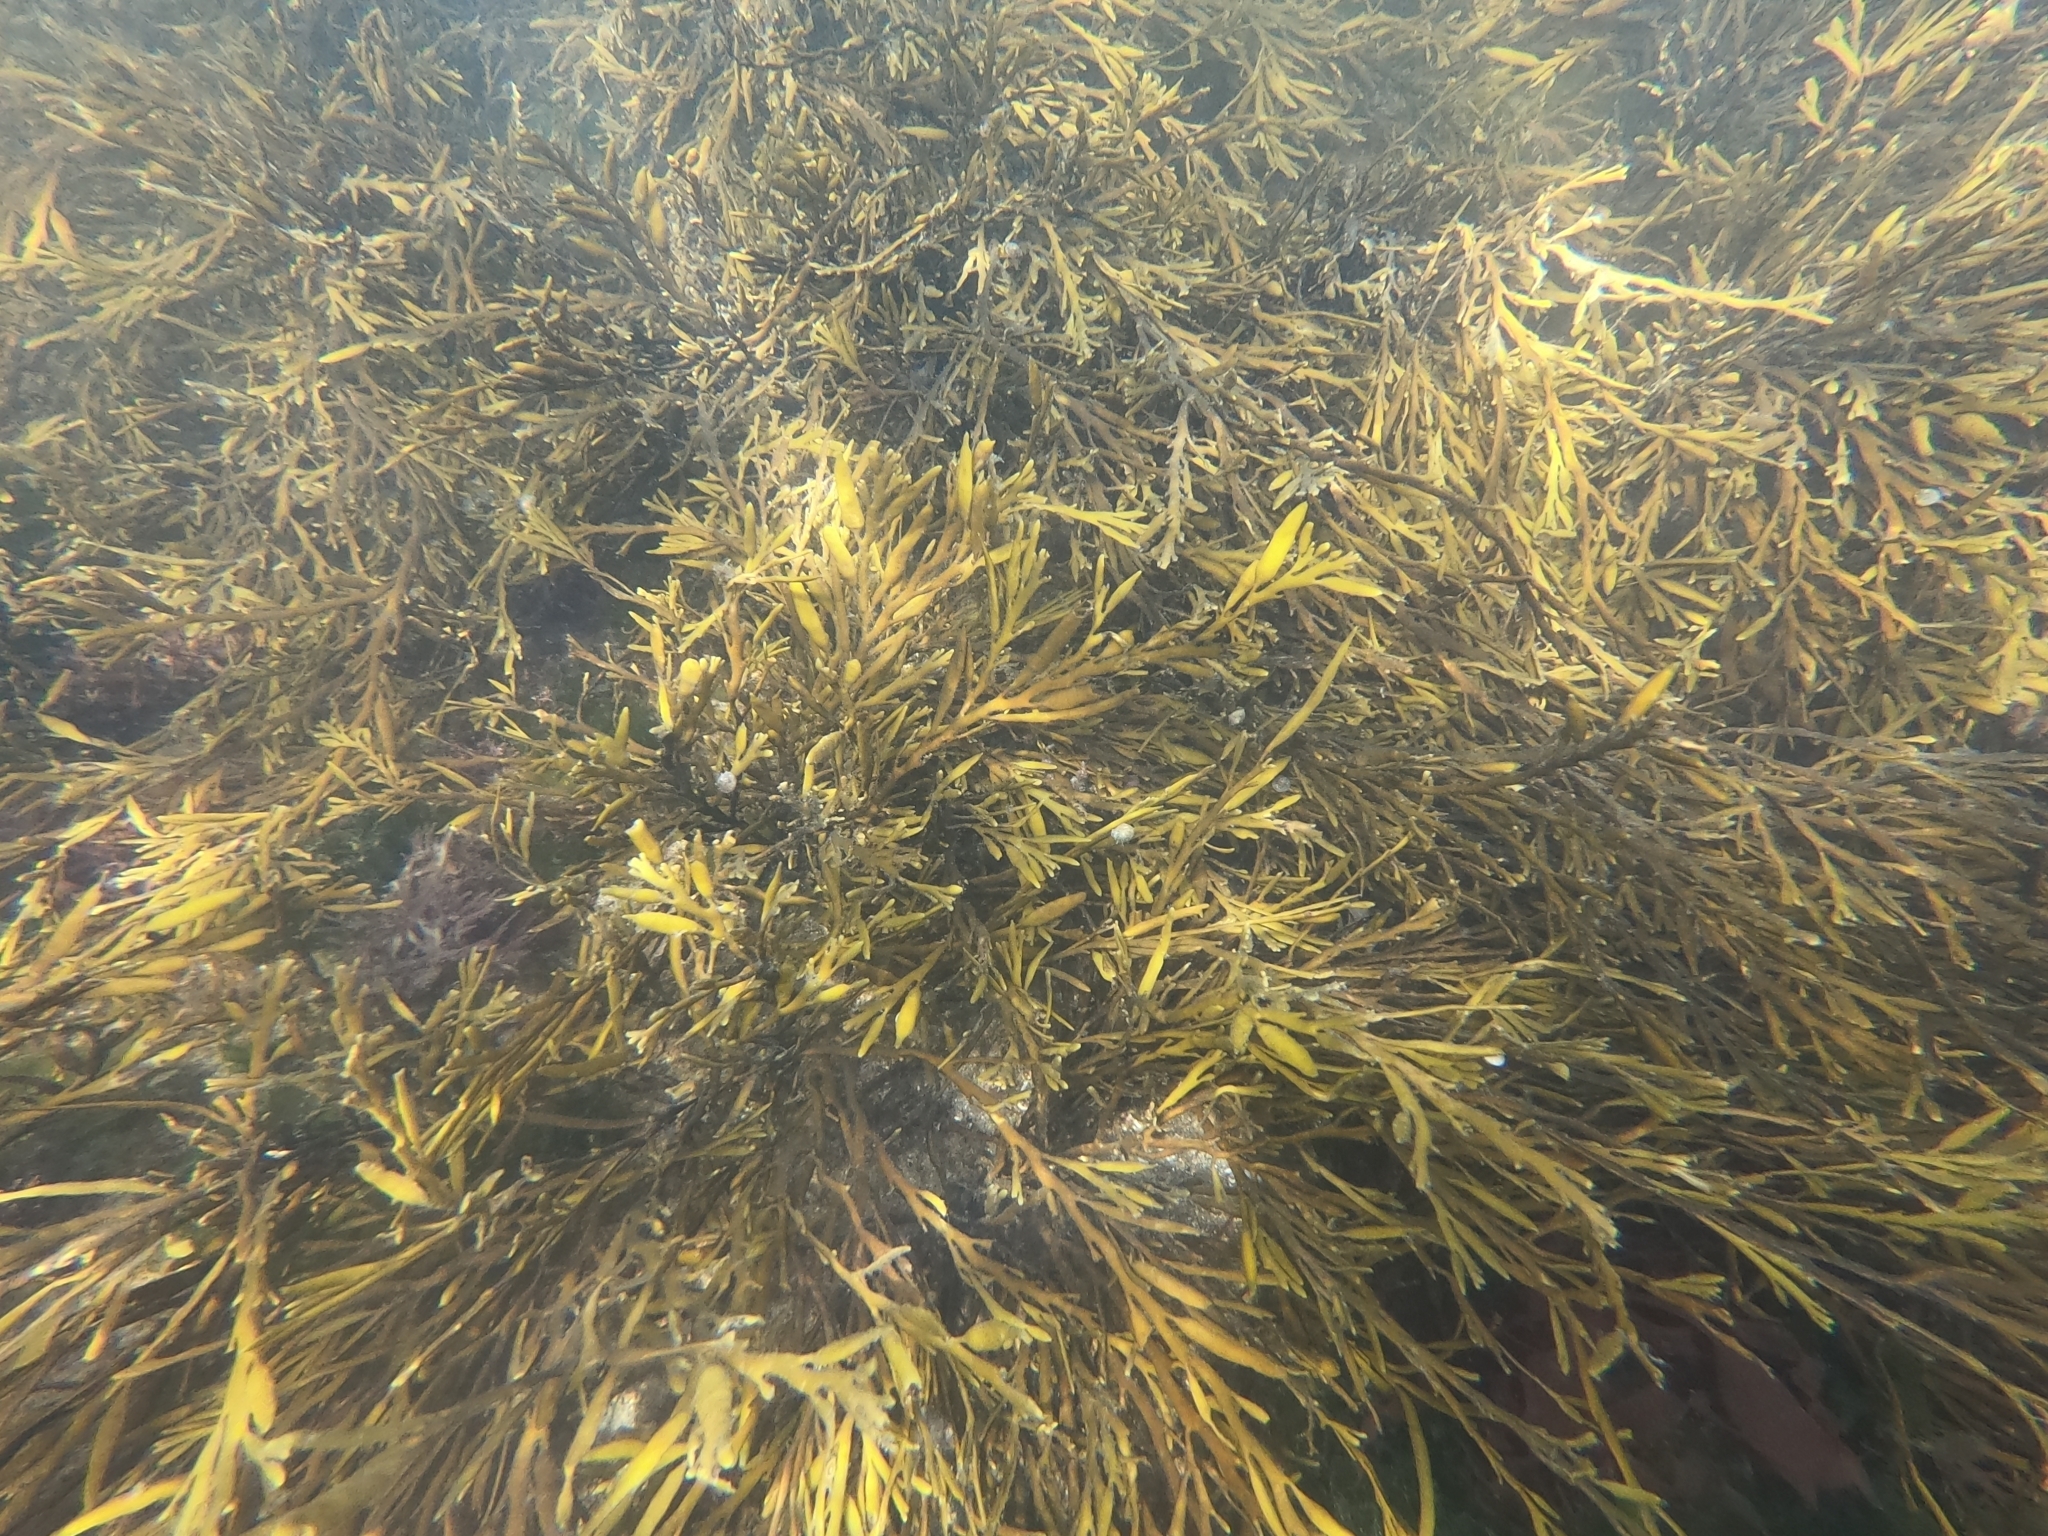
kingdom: Chromista
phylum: Ochrophyta
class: Phaeophyceae
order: Fucales
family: Sargassaceae
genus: Halidrys
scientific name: Halidrys siliquosa
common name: Sea oak
